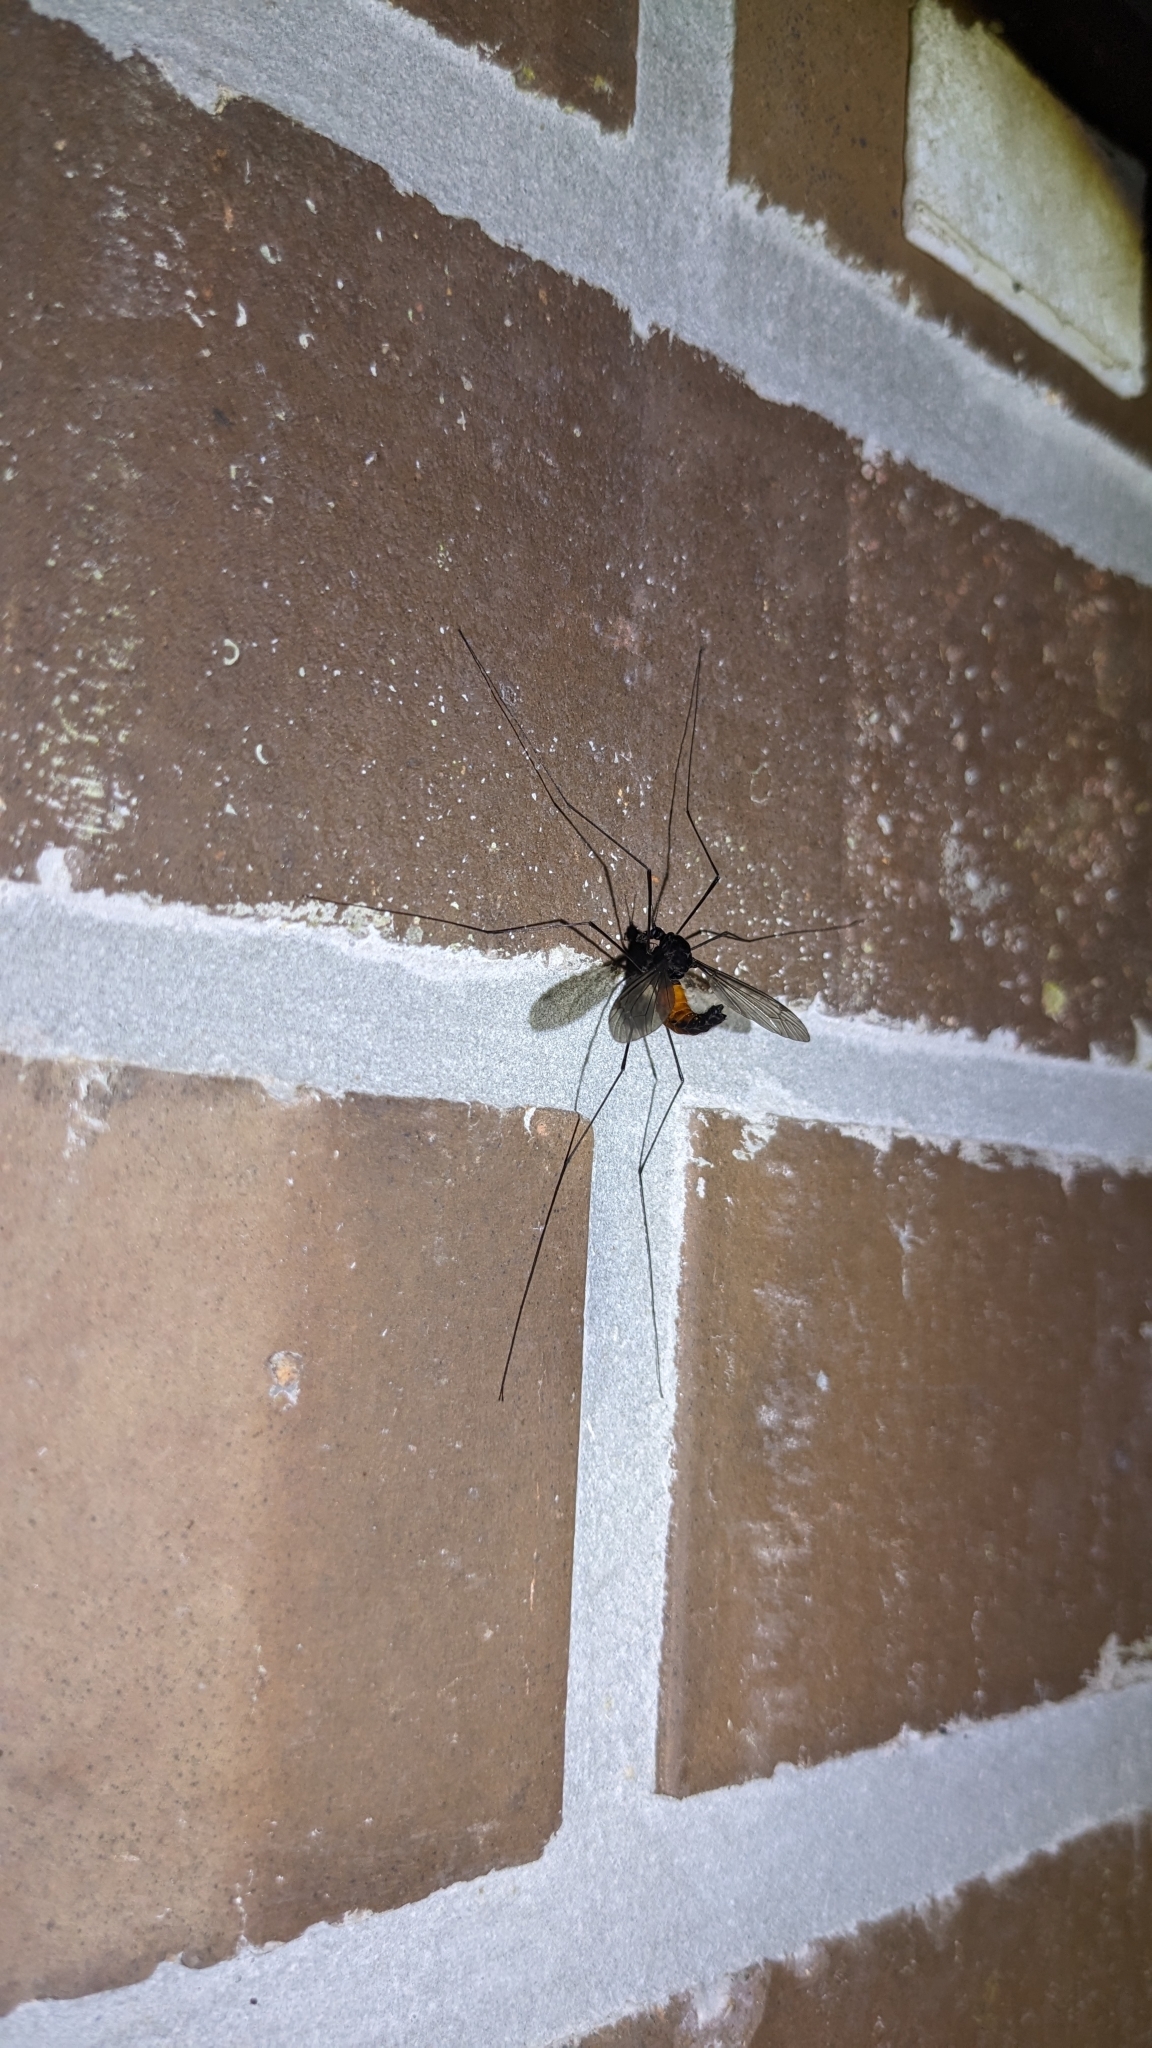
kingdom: Animalia
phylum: Arthropoda
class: Insecta
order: Diptera
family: Tipulidae
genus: Tipula
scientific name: Tipula holoserica
